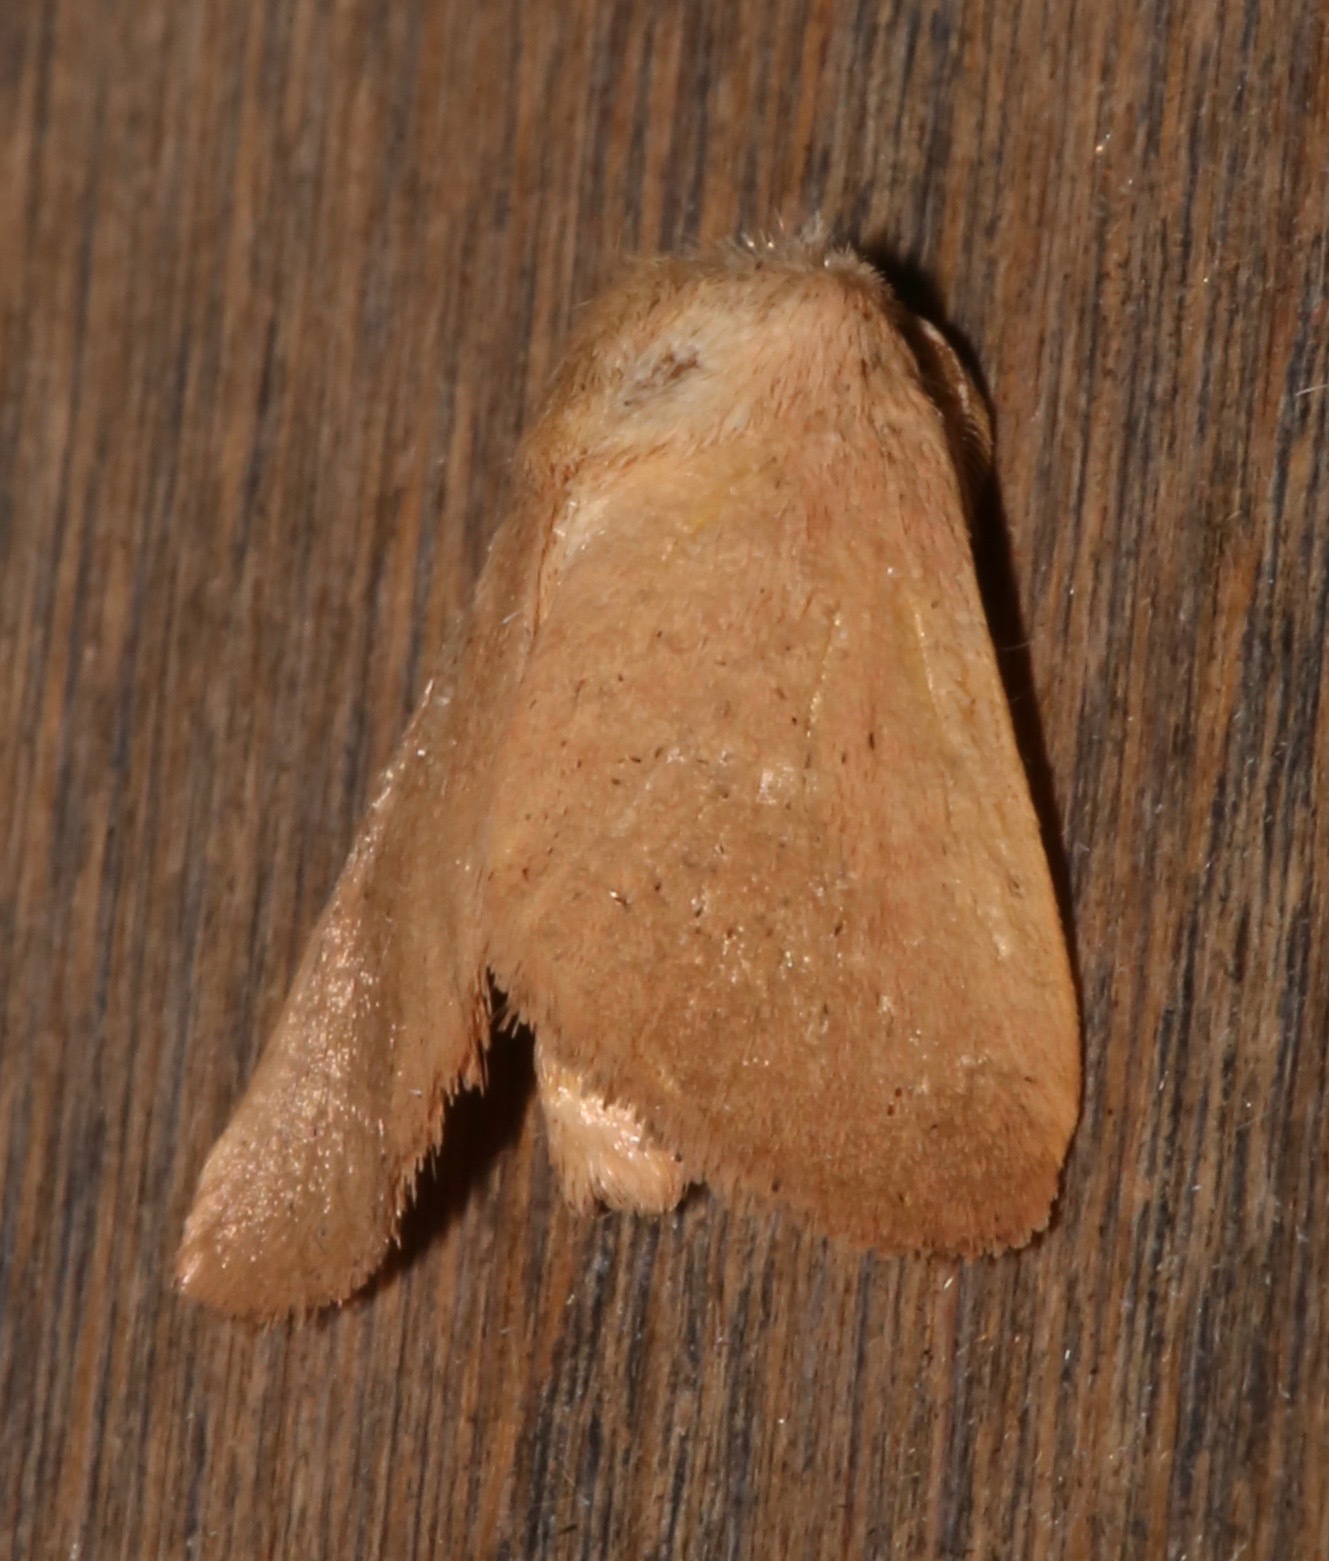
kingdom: Animalia
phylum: Arthropoda
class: Insecta
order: Lepidoptera
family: Limacodidae
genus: Isa
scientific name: Isa schaefferana
